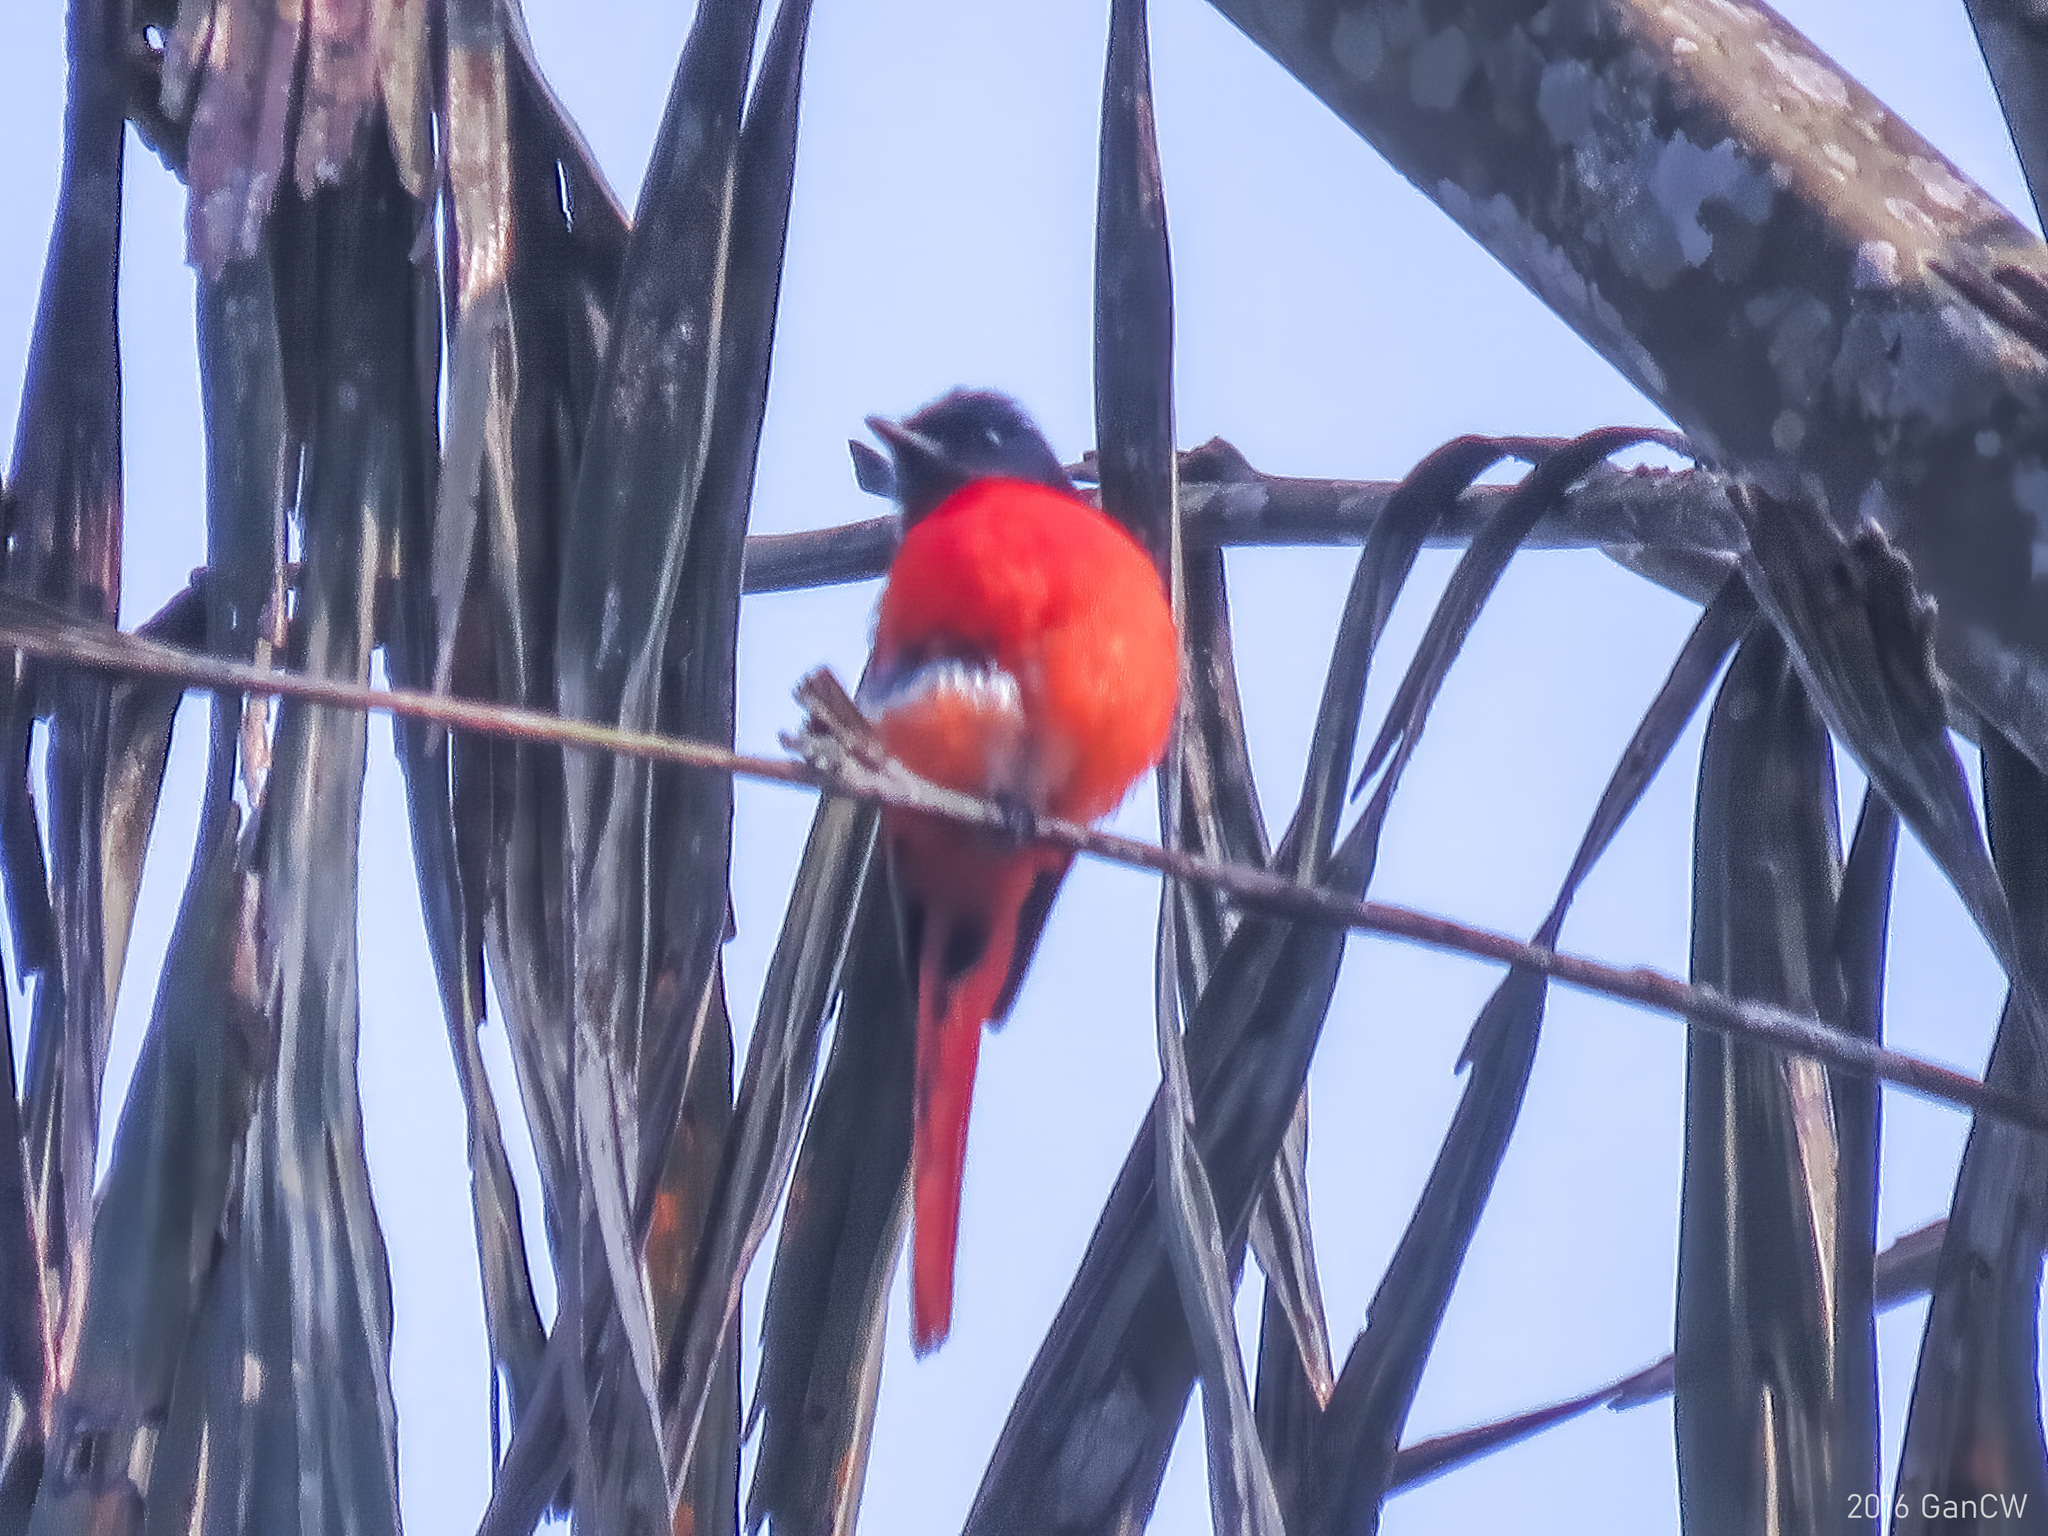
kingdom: Animalia
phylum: Chordata
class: Aves
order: Passeriformes
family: Campephagidae
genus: Pericrocotus
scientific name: Pericrocotus solaris
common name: Grey-chinned minivet
